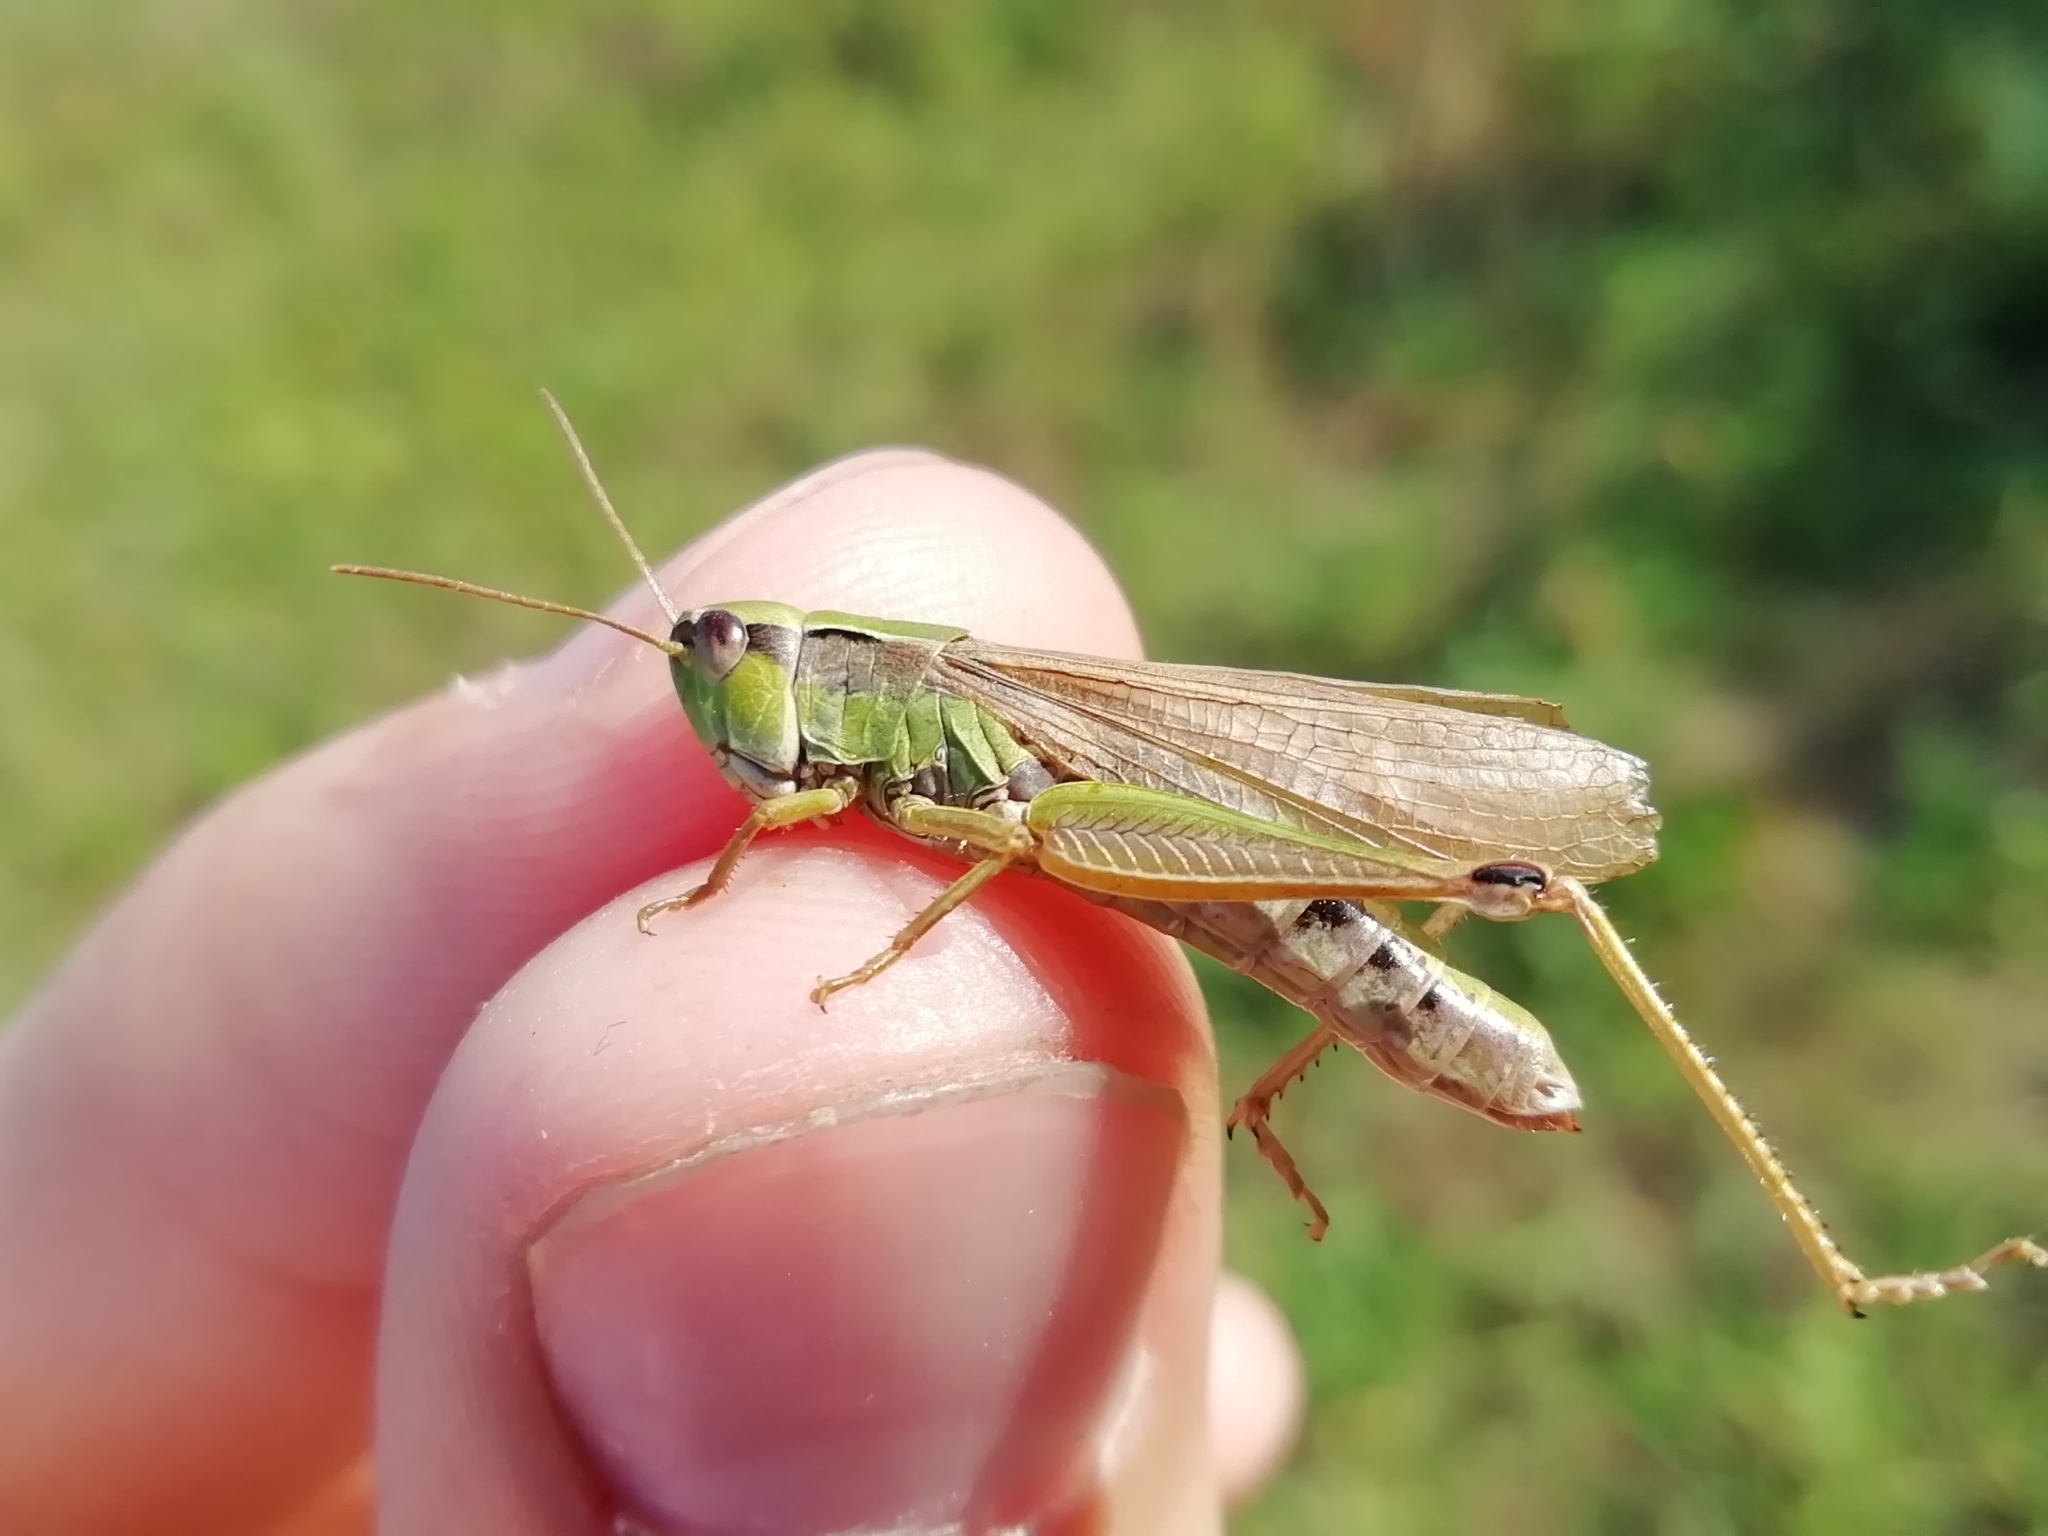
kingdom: Animalia
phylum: Arthropoda
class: Insecta
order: Orthoptera
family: Acrididae
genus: Chorthippus
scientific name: Chorthippus fallax
